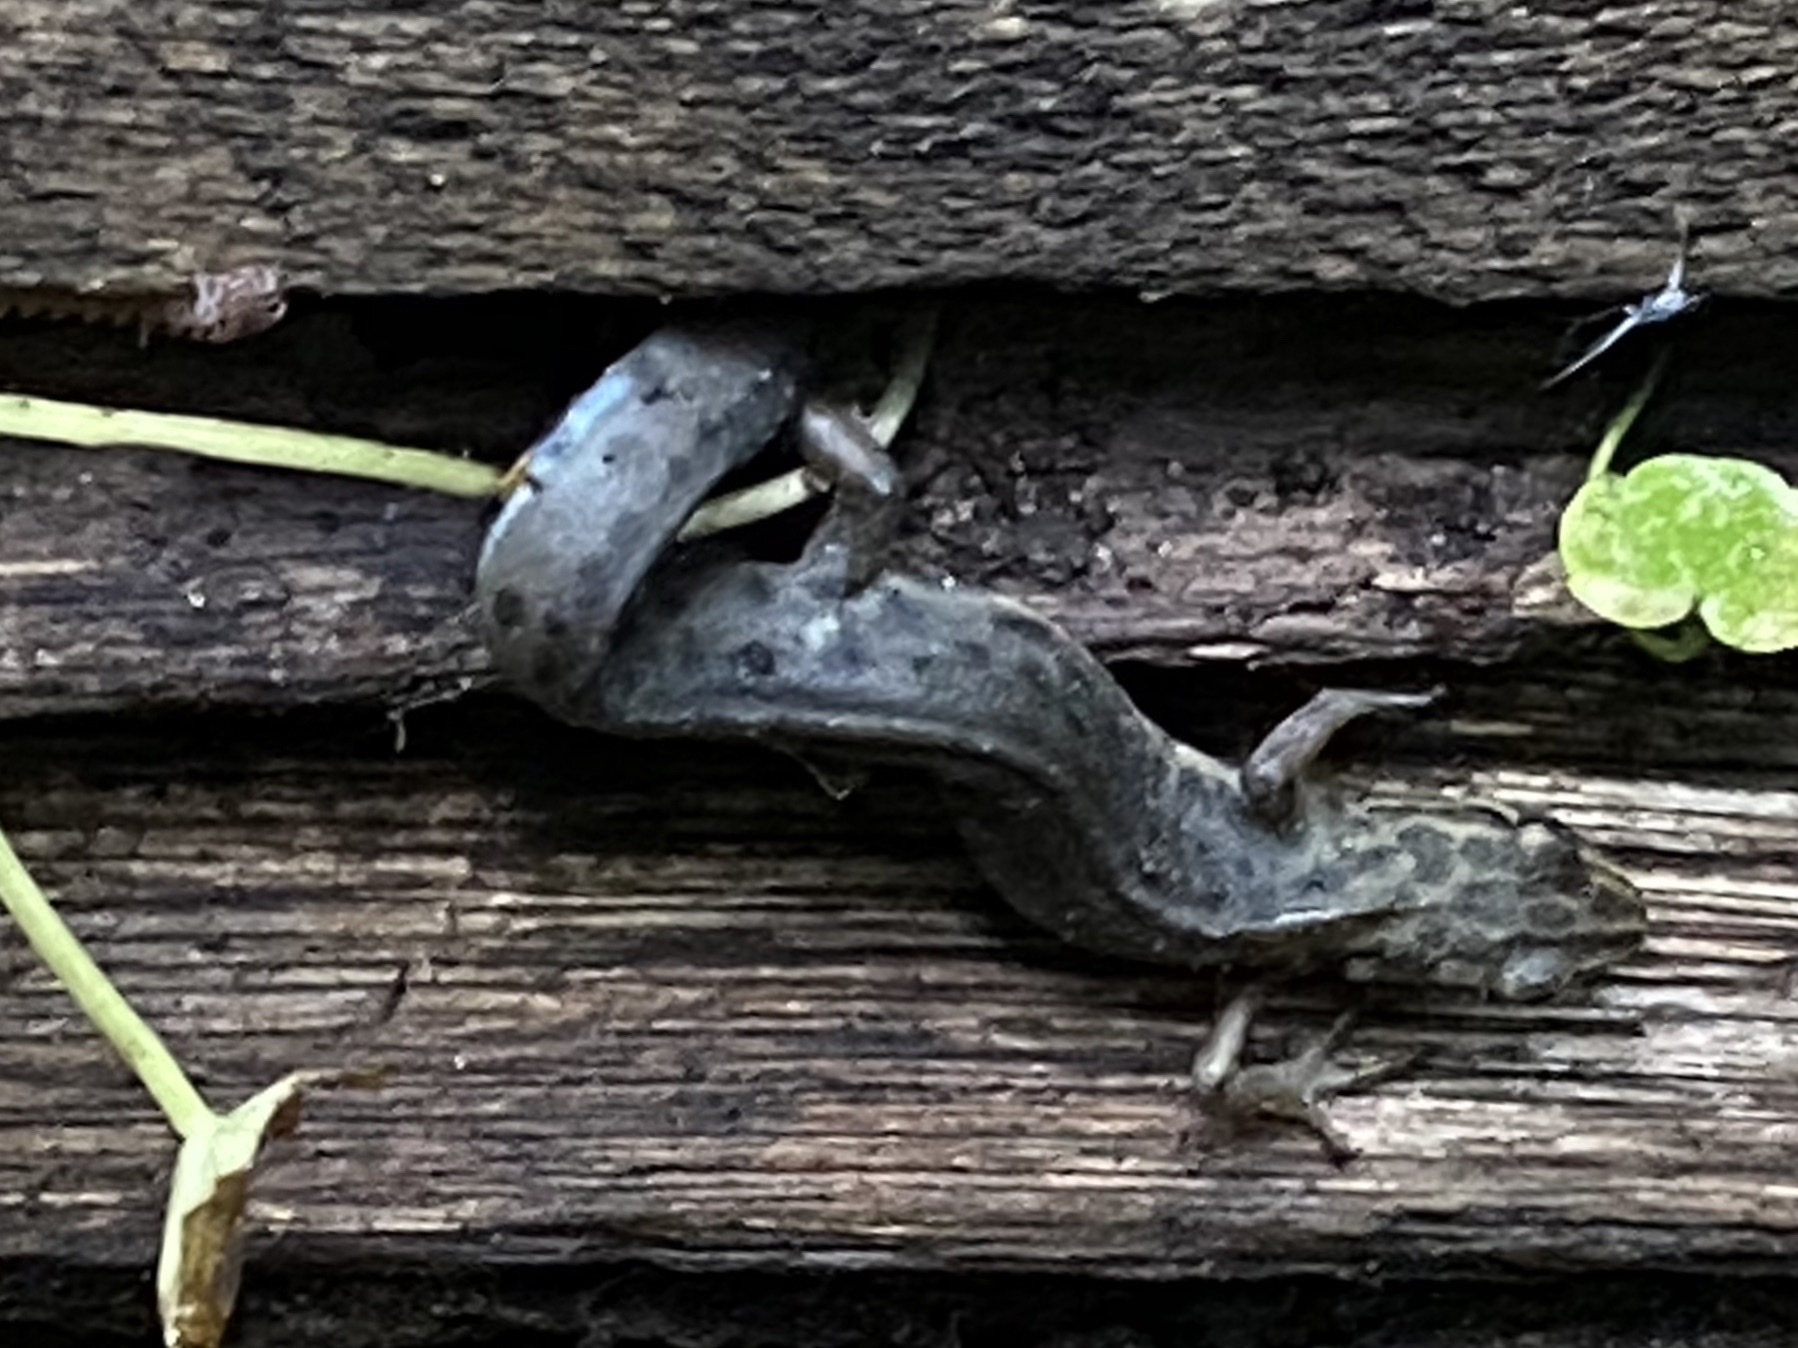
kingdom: Animalia
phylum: Chordata
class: Amphibia
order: Caudata
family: Salamandridae
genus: Lissotriton
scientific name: Lissotriton
